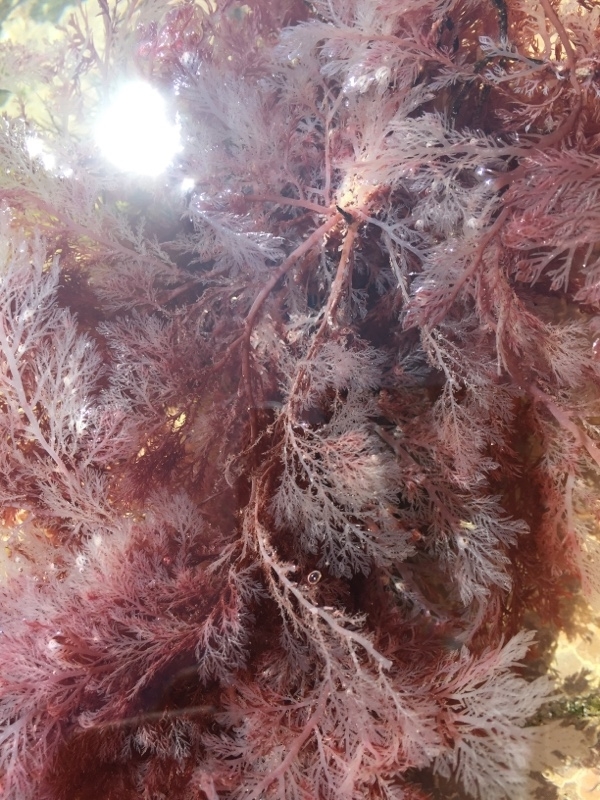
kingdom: Plantae
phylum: Rhodophyta
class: Florideophyceae
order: Gigartinales
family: Sphaerococcaceae
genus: Sphaerococcus
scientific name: Sphaerococcus coronopifolius
